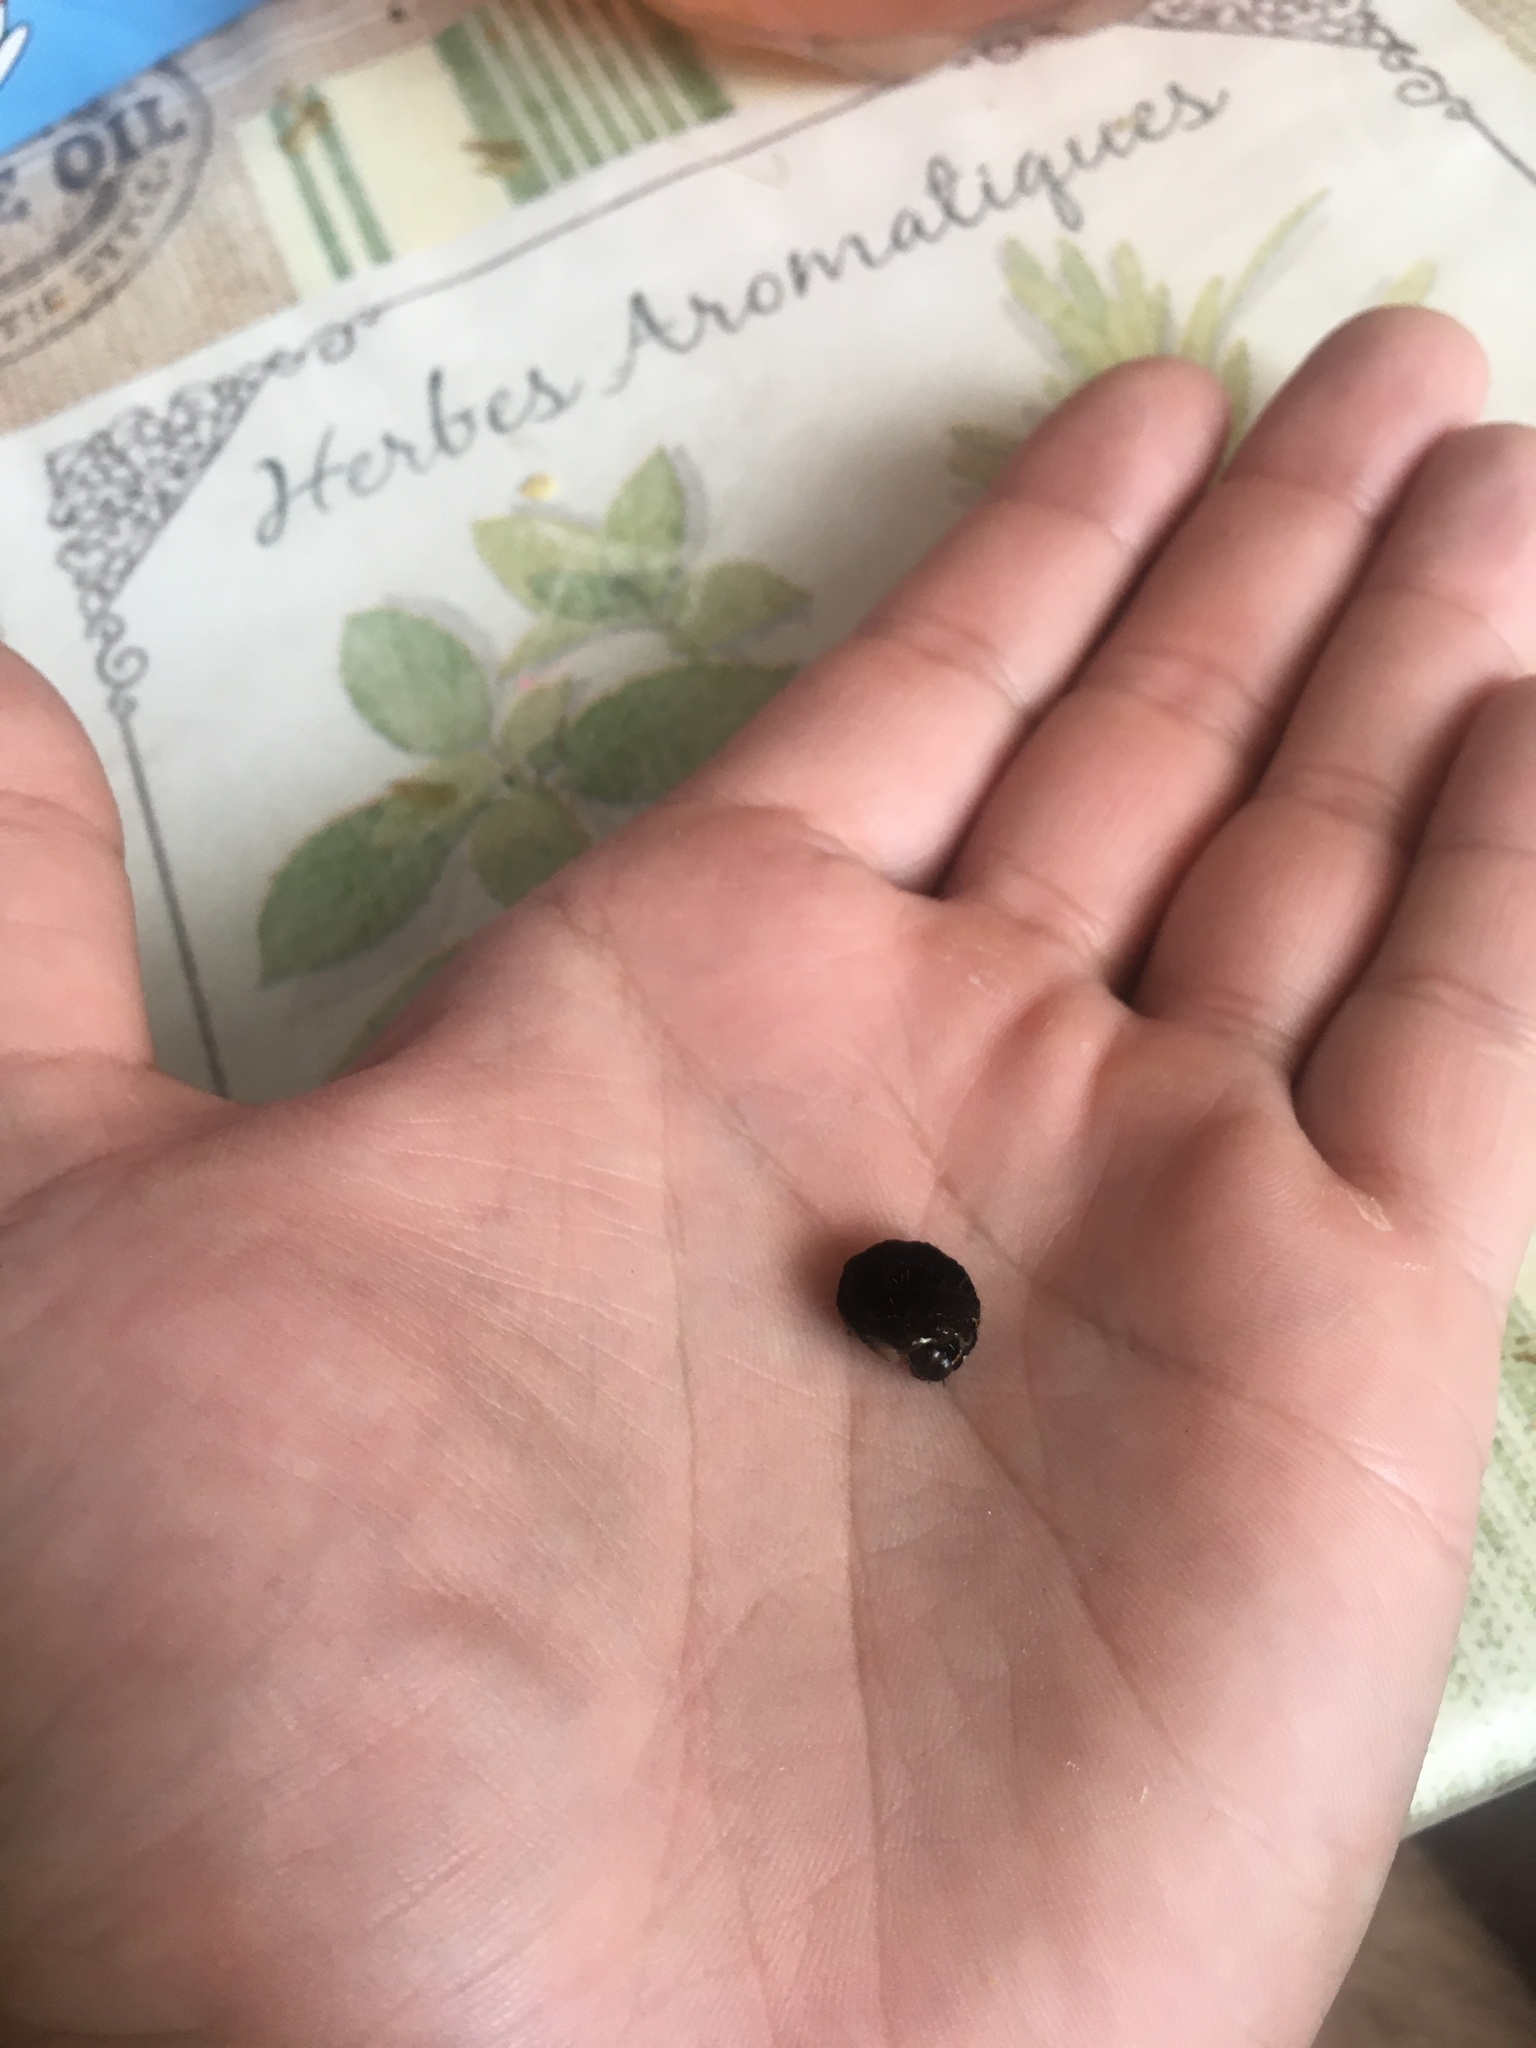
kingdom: Animalia
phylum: Arthropoda
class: Insecta
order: Lepidoptera
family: Noctuidae
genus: Eupsilia
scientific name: Eupsilia transversa
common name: Satellite
